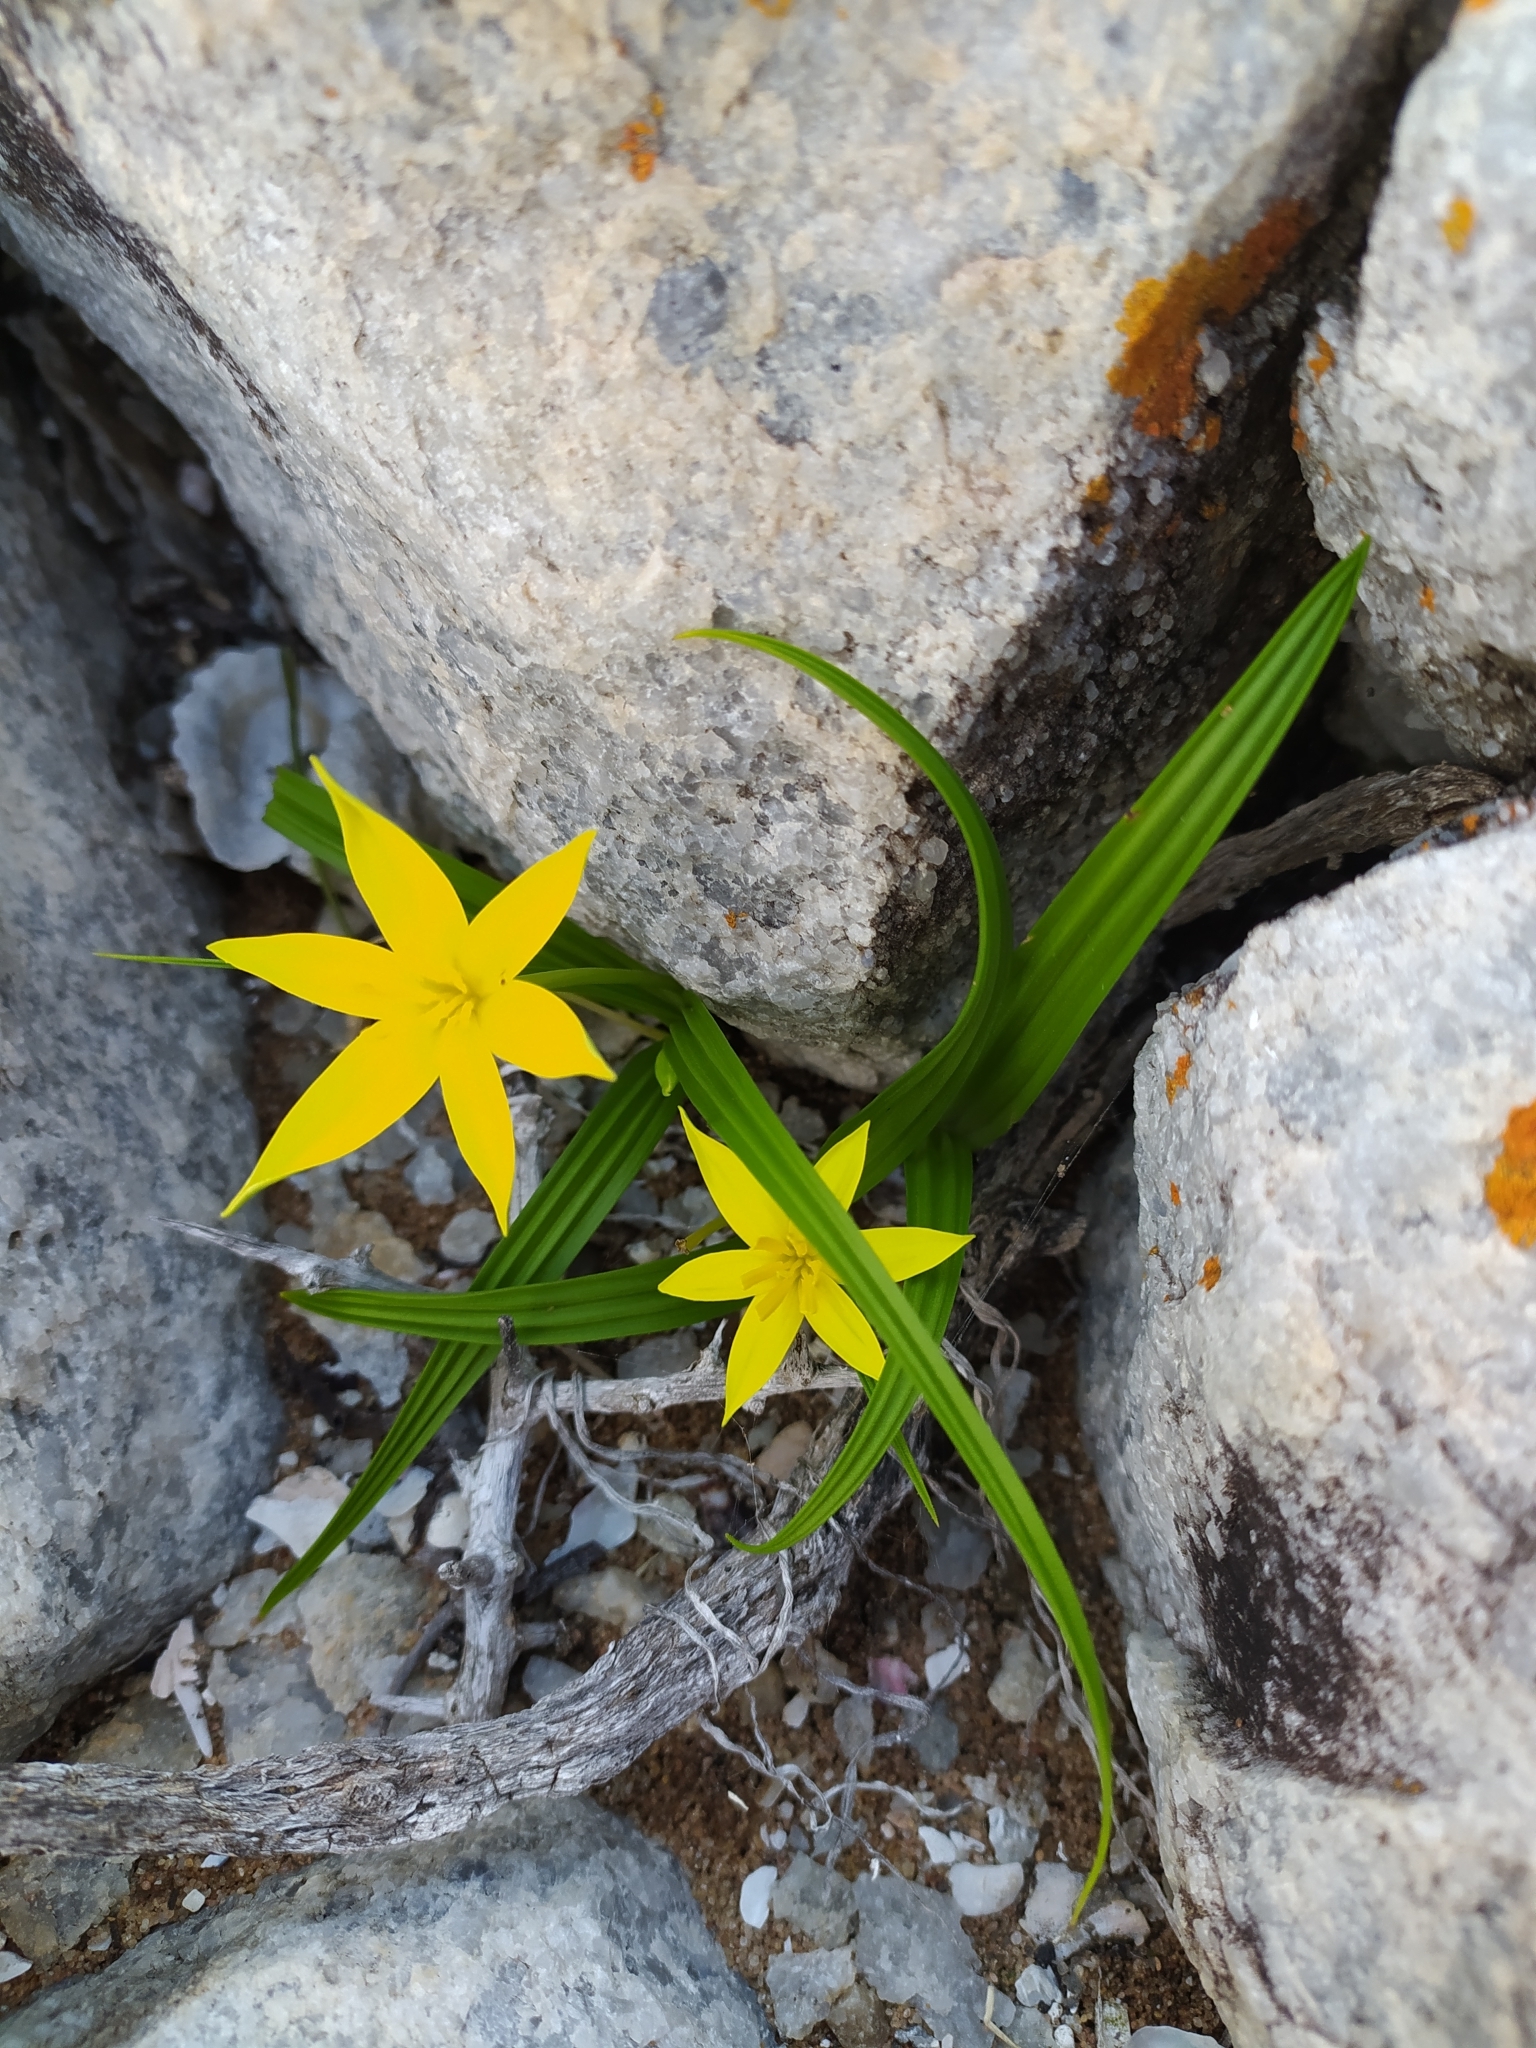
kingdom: Plantae
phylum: Tracheophyta
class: Liliopsida
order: Asparagales
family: Hypoxidaceae
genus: Empodium
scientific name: Empodium plicatum
